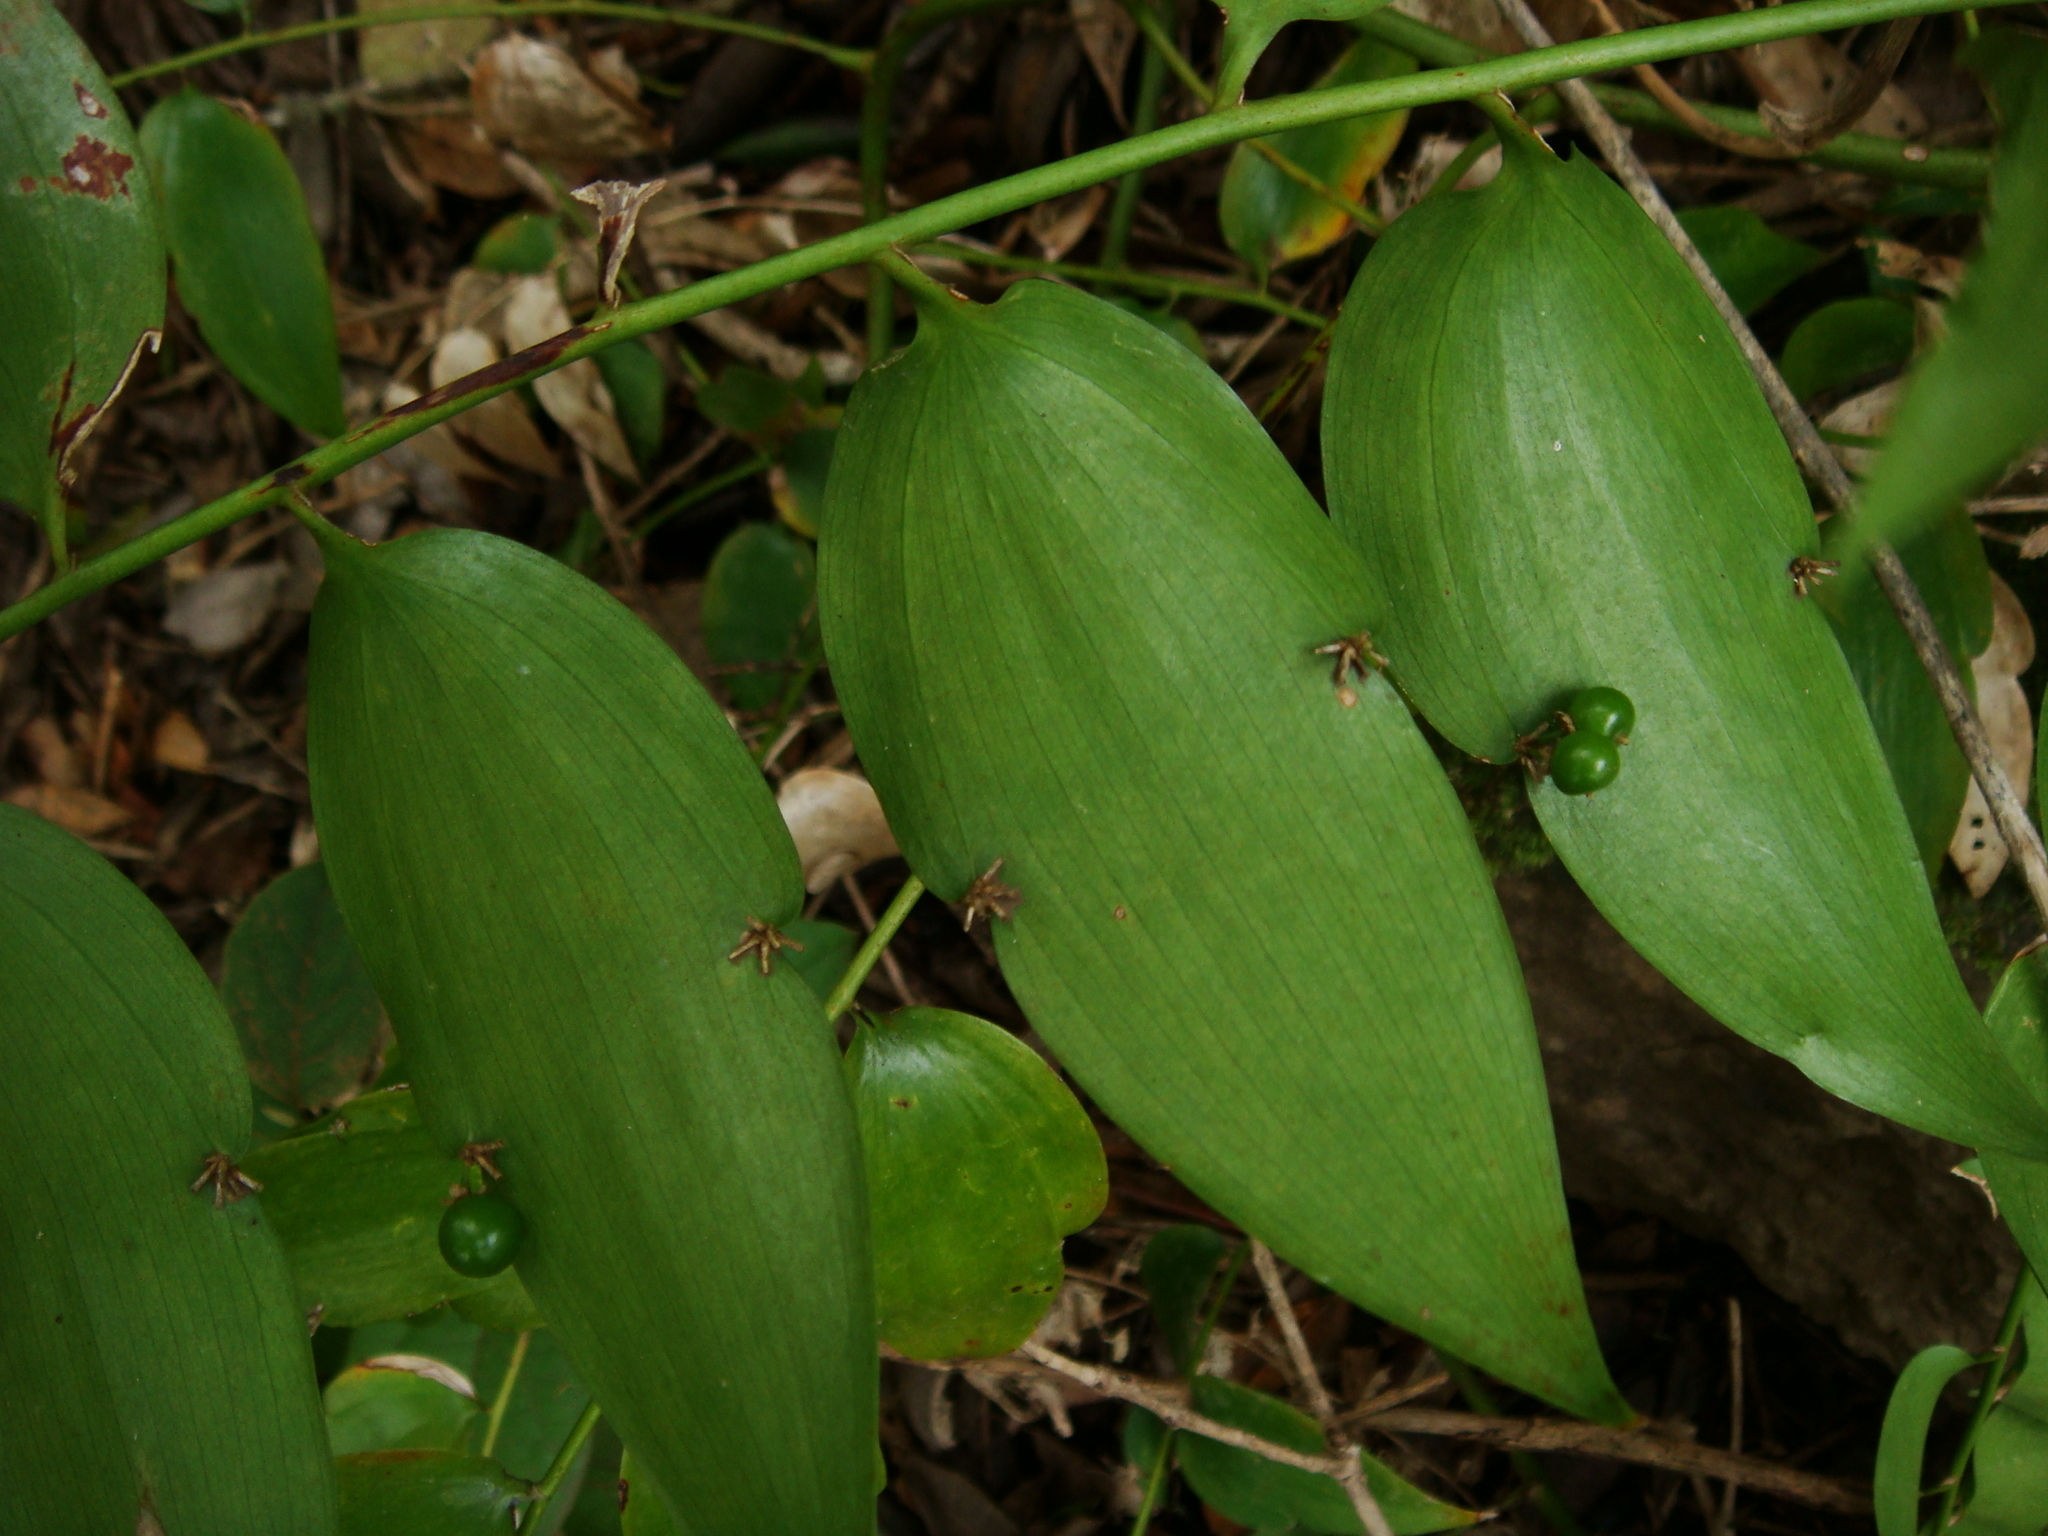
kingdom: Plantae
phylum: Tracheophyta
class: Liliopsida
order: Asparagales
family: Asparagaceae
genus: Semele
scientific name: Semele androgyna
